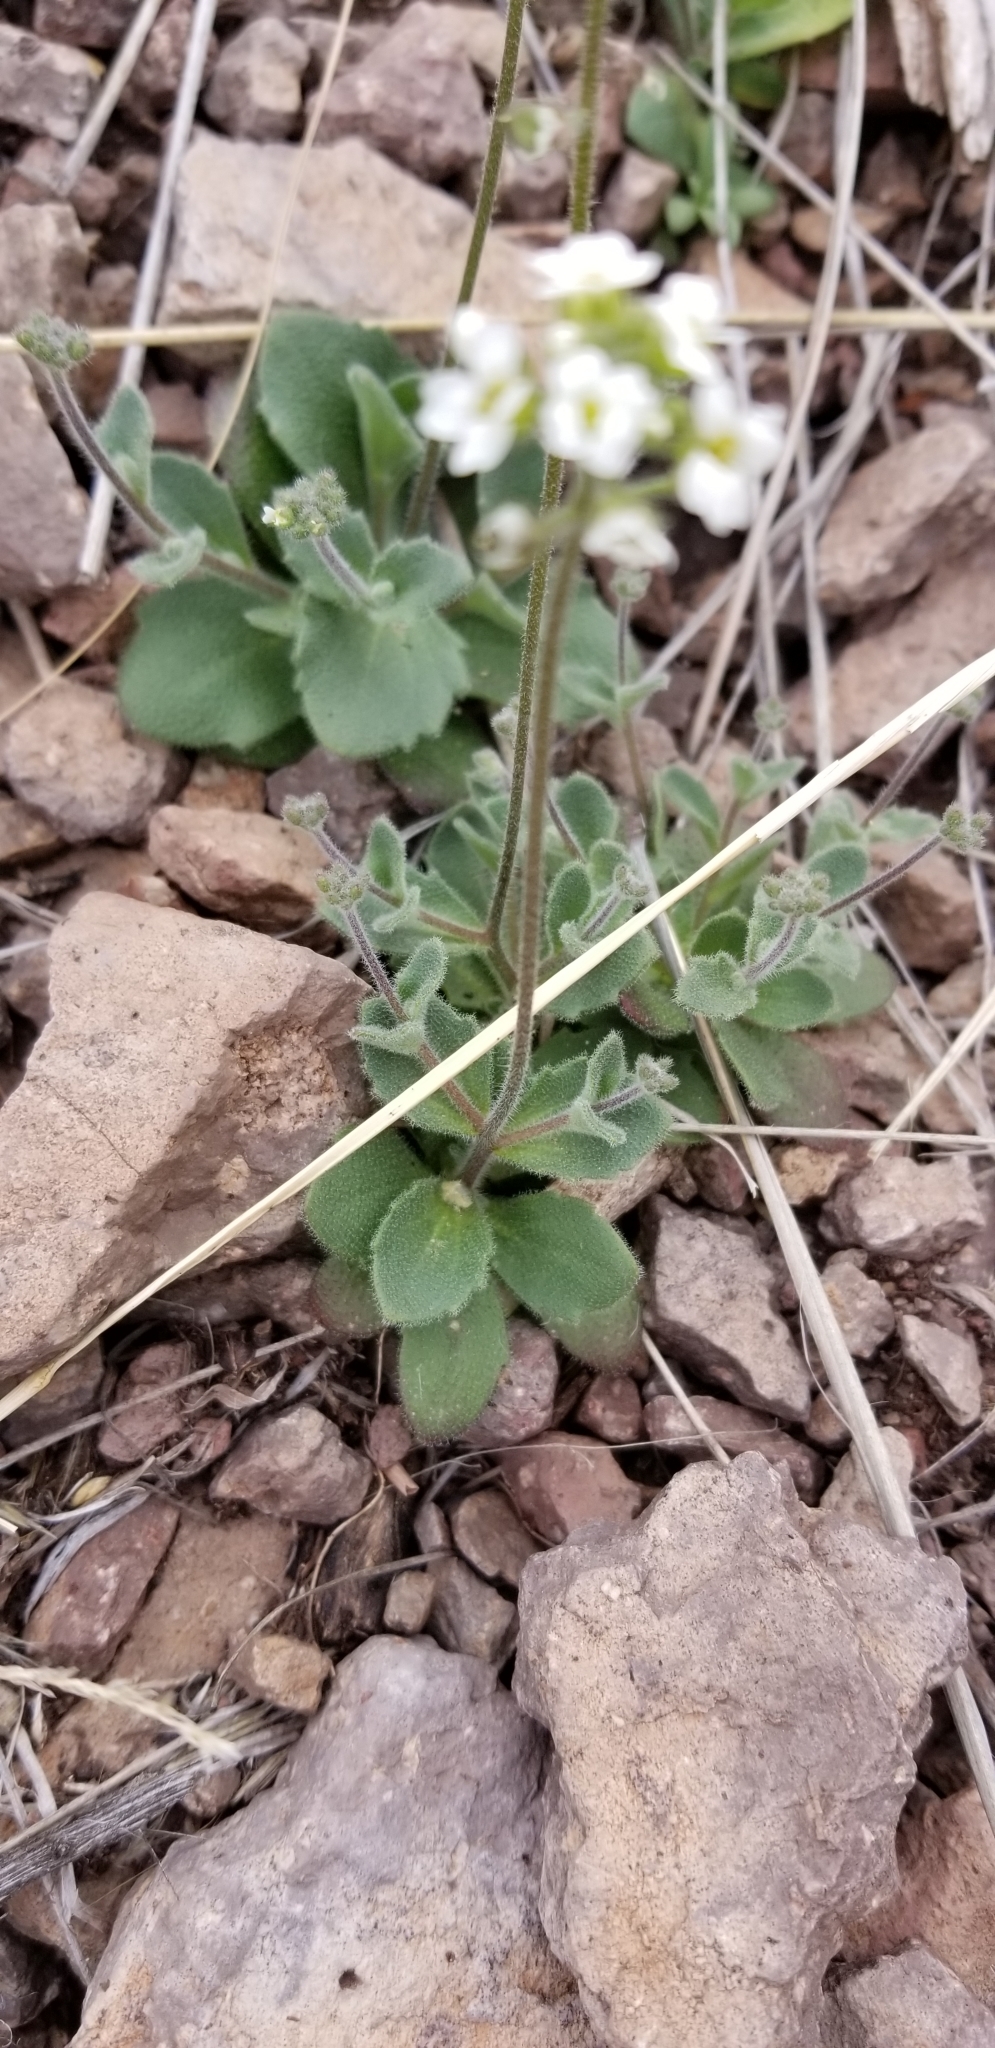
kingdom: Plantae
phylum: Tracheophyta
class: Magnoliopsida
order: Brassicales
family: Brassicaceae
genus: Tomostima
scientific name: Tomostima cuneifolia
